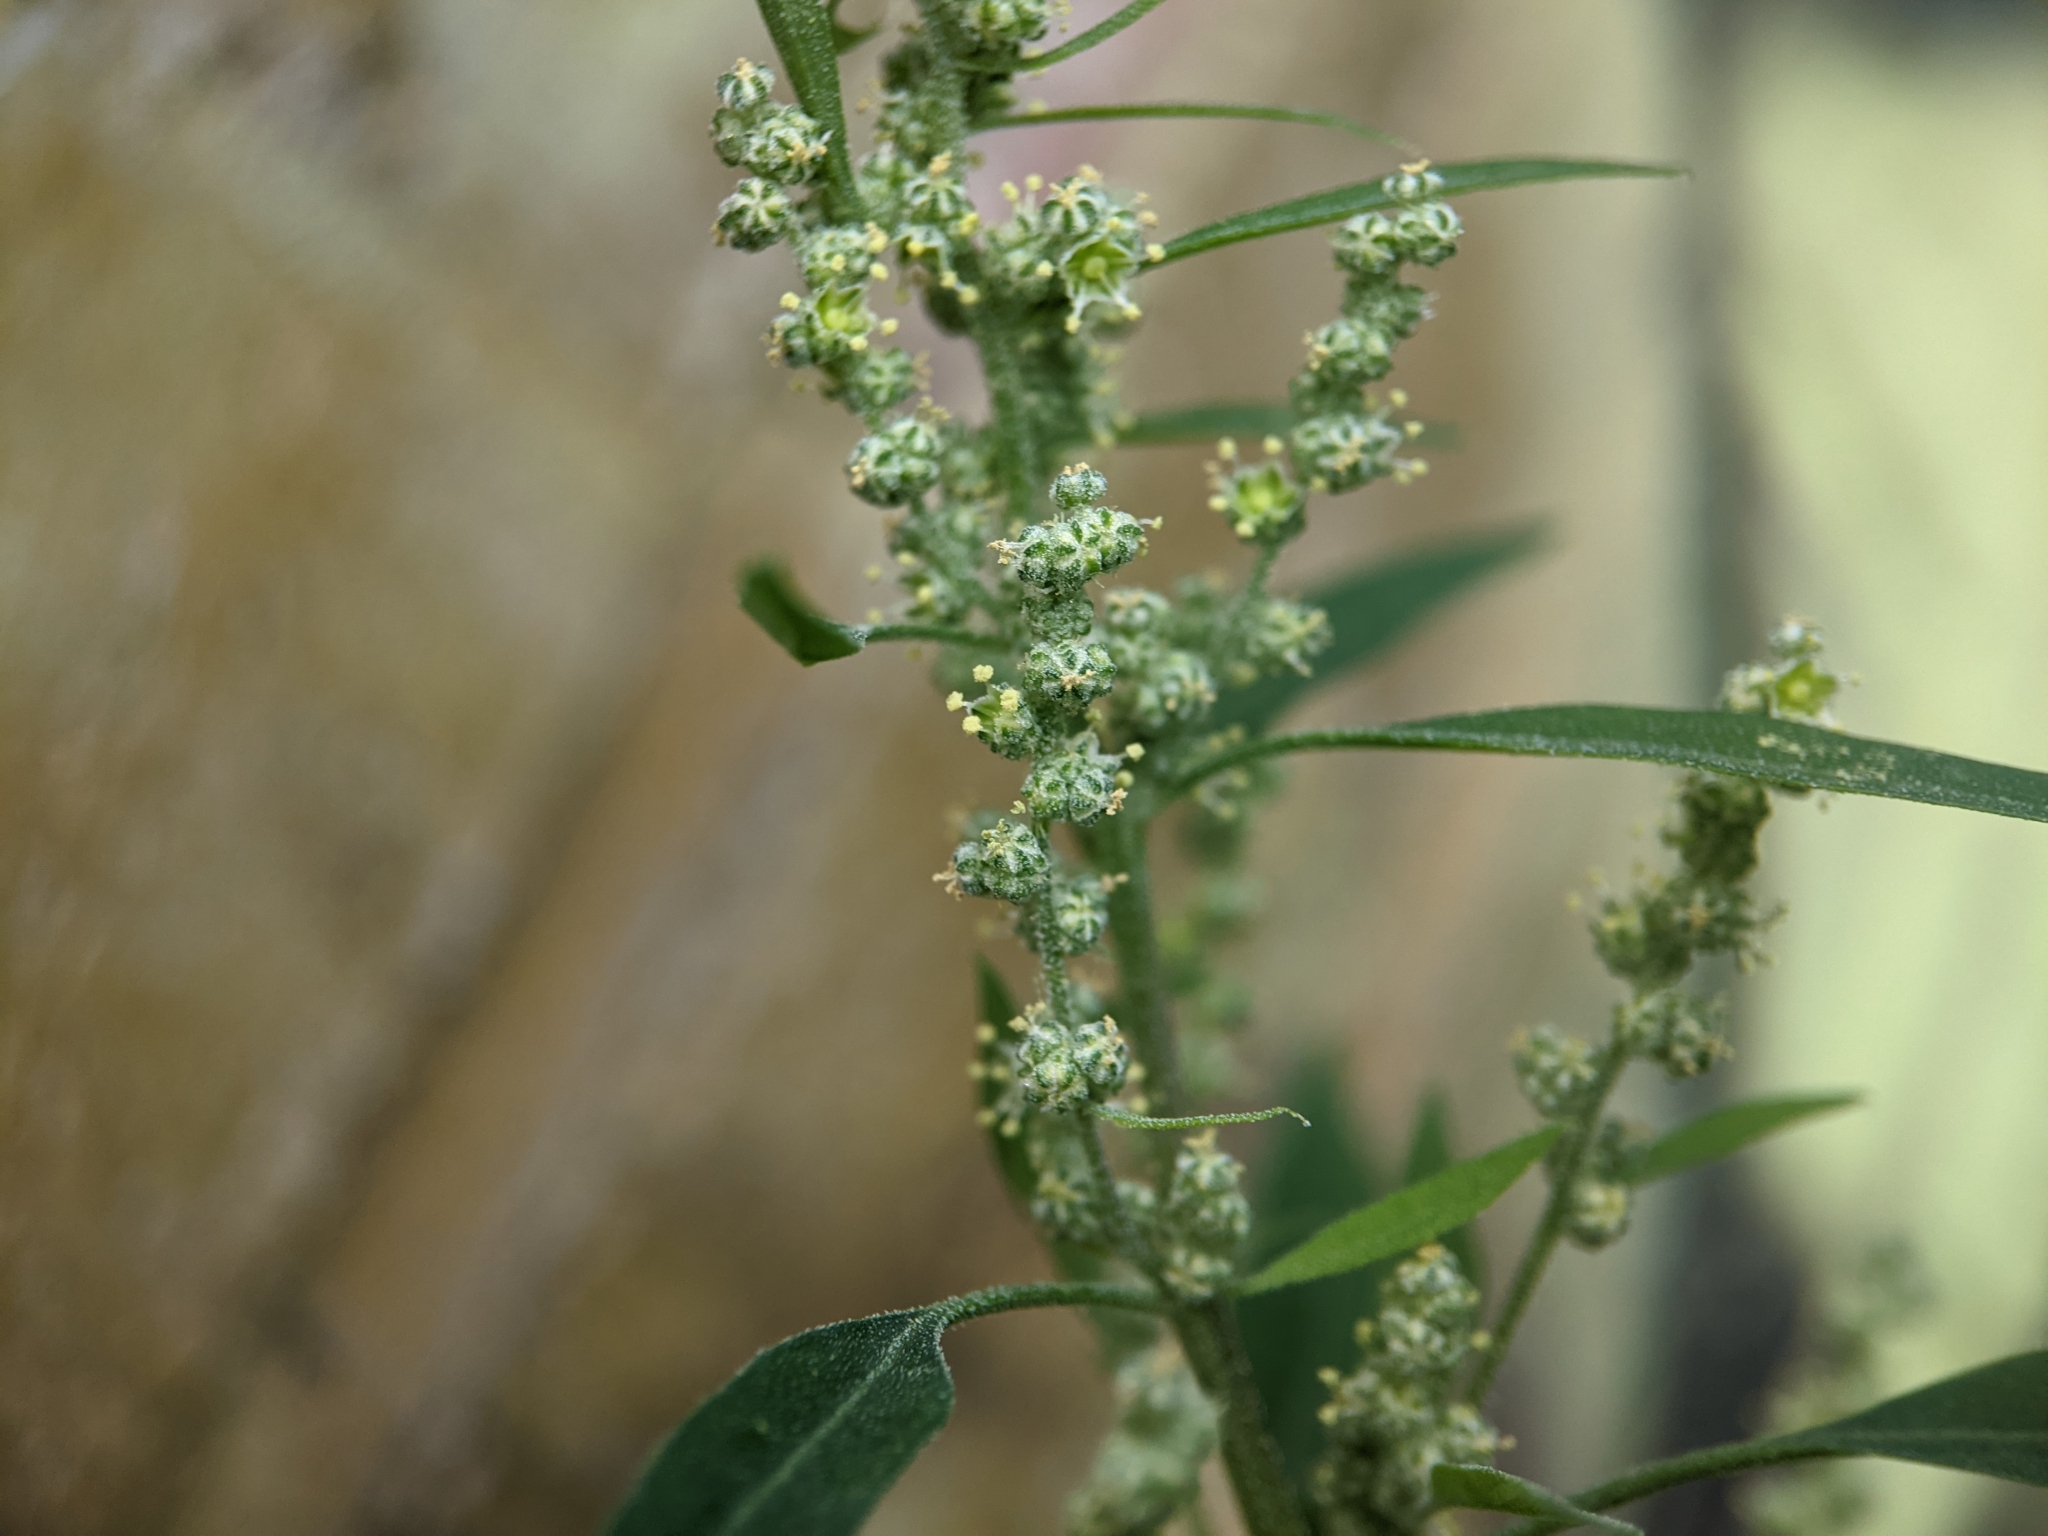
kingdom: Plantae
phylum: Tracheophyta
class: Magnoliopsida
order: Caryophyllales
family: Amaranthaceae
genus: Chenopodium
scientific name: Chenopodium album
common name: Fat-hen
